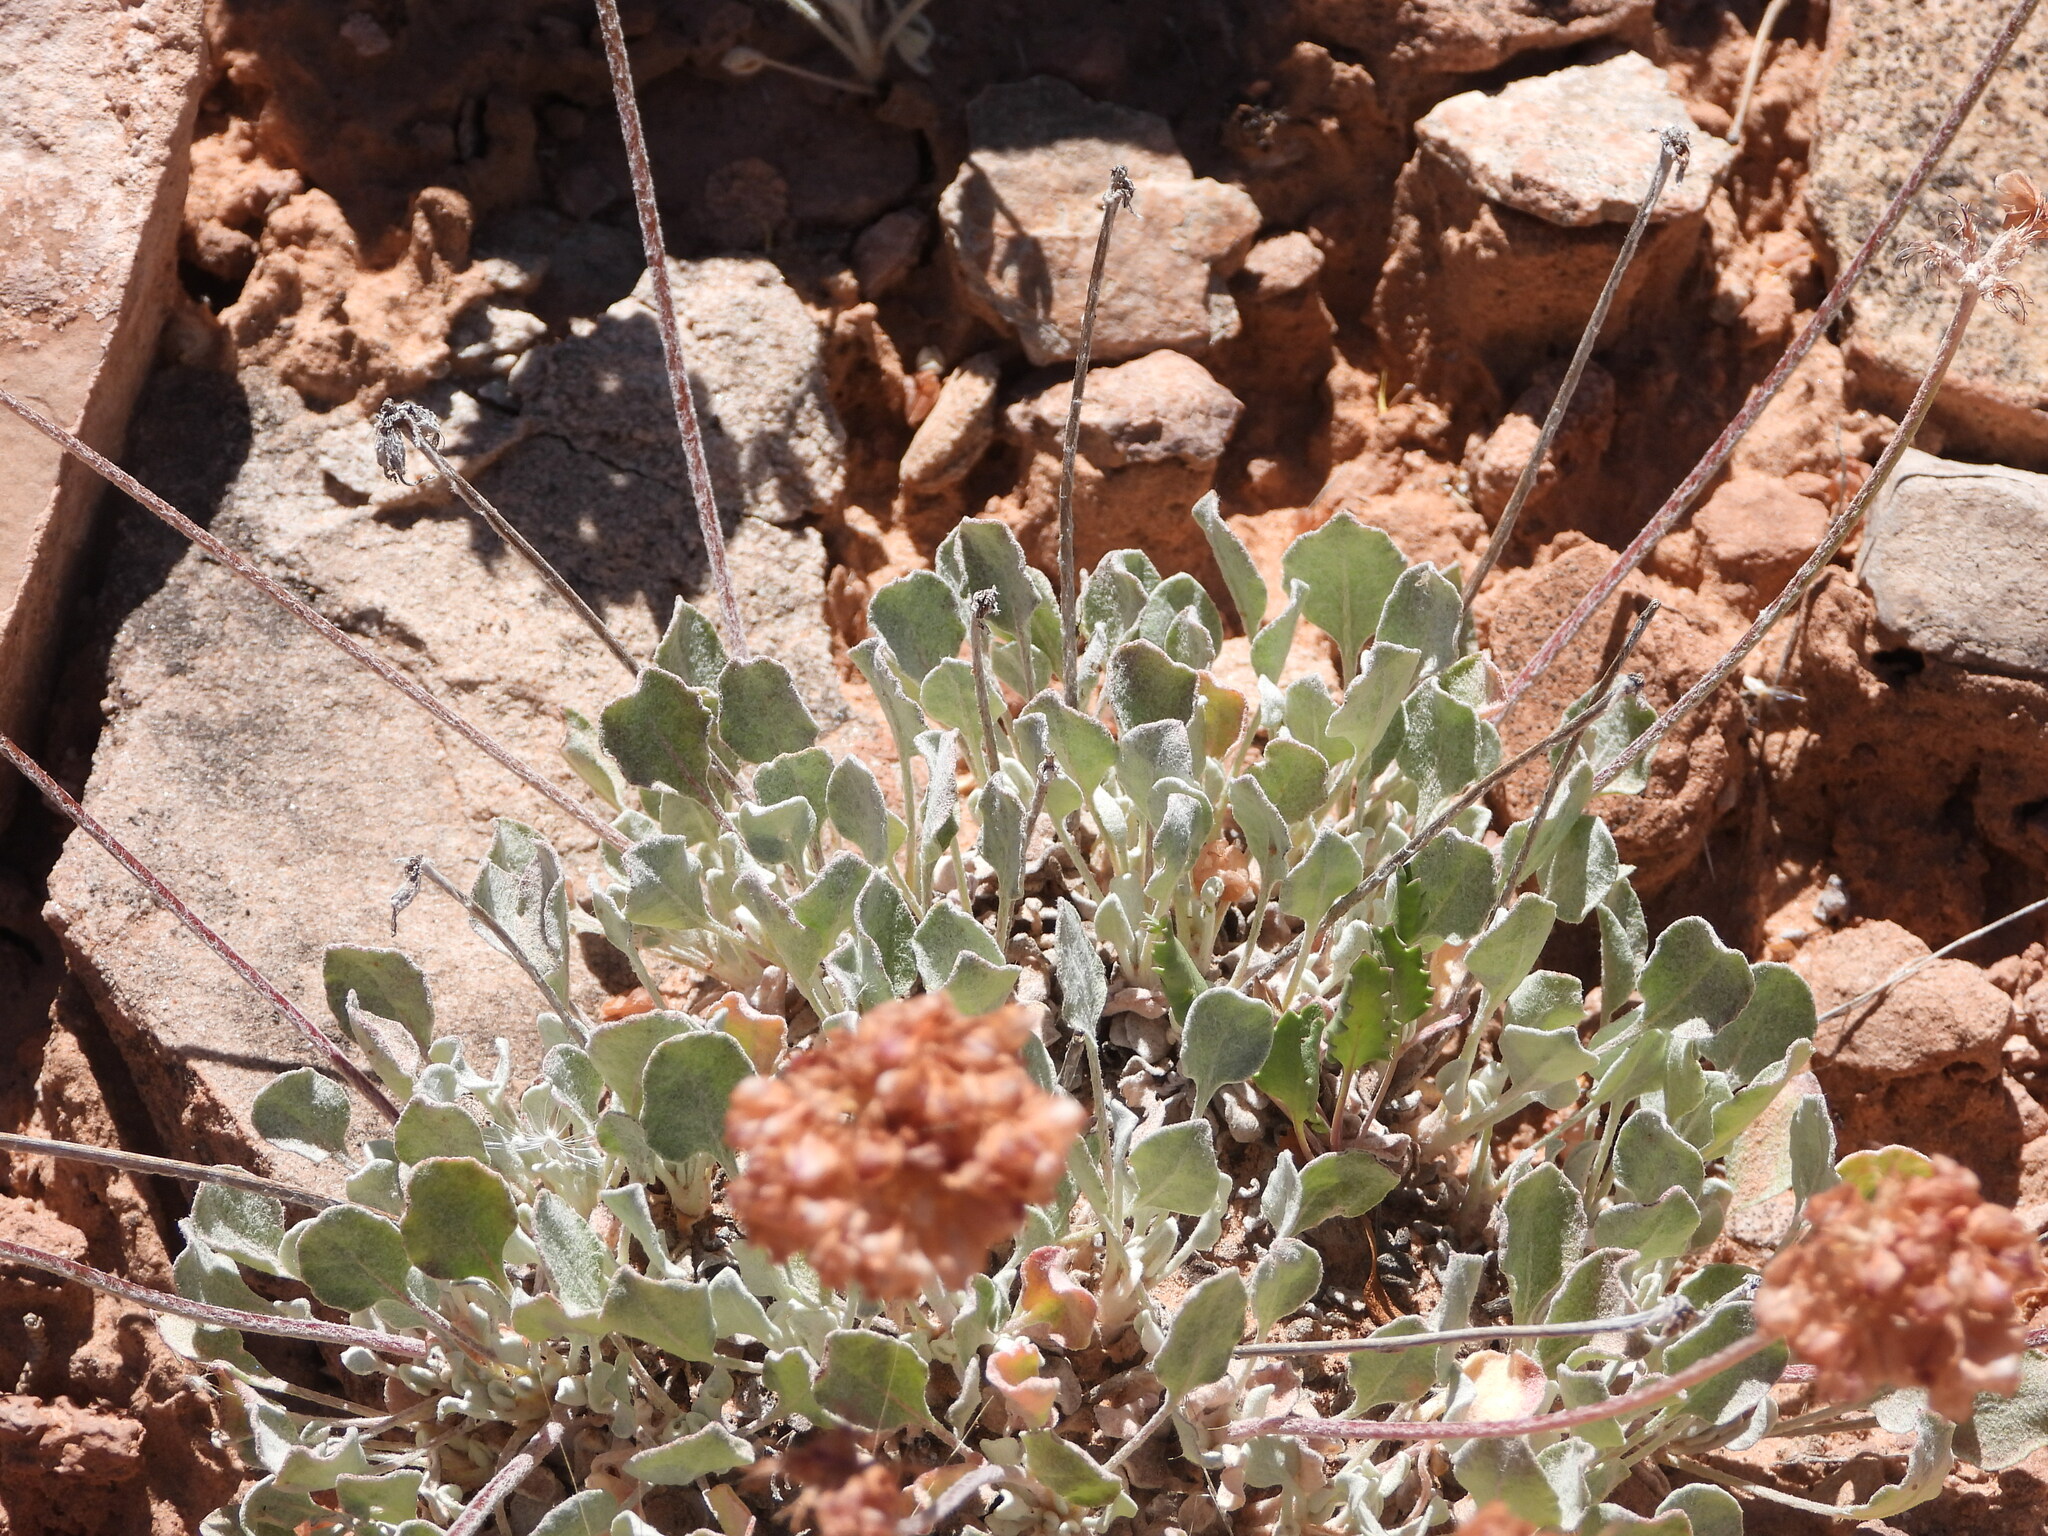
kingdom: Plantae
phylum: Tracheophyta
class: Magnoliopsida
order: Caryophyllales
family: Polygonaceae
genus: Eriogonum
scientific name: Eriogonum ovalifolium
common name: Cushion buckwheat
